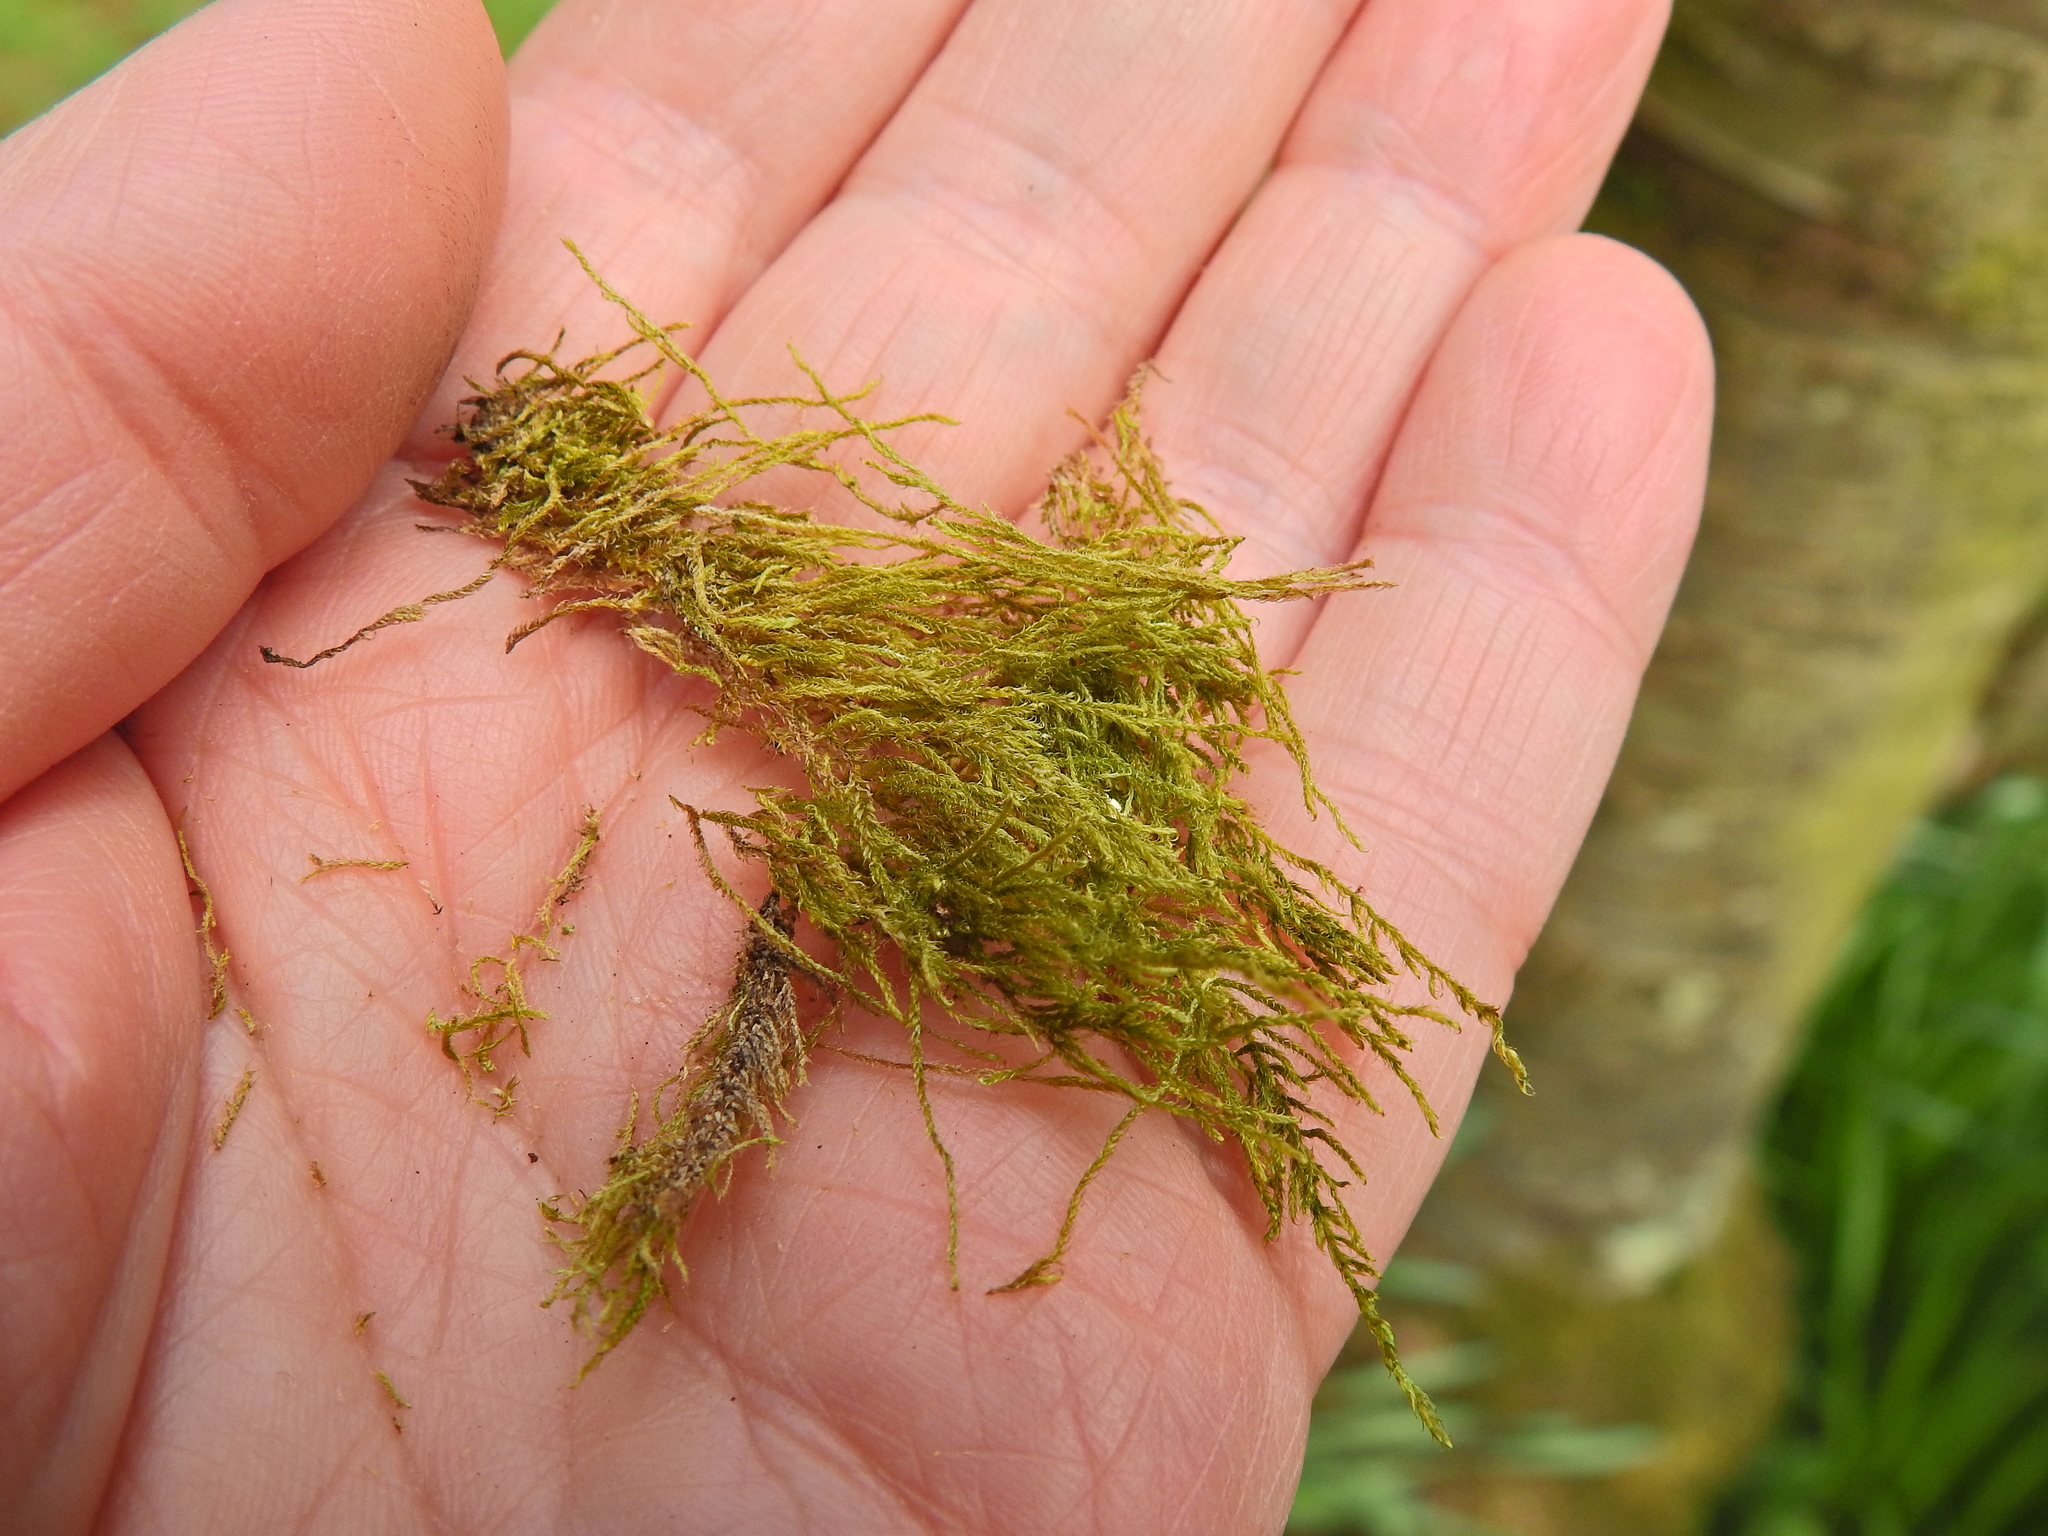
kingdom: Plantae
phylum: Bryophyta
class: Bryopsida
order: Hypnales
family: Amblystegiaceae
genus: Amblystegium
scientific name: Amblystegium serpens
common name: Jurkatzka's feather moss
